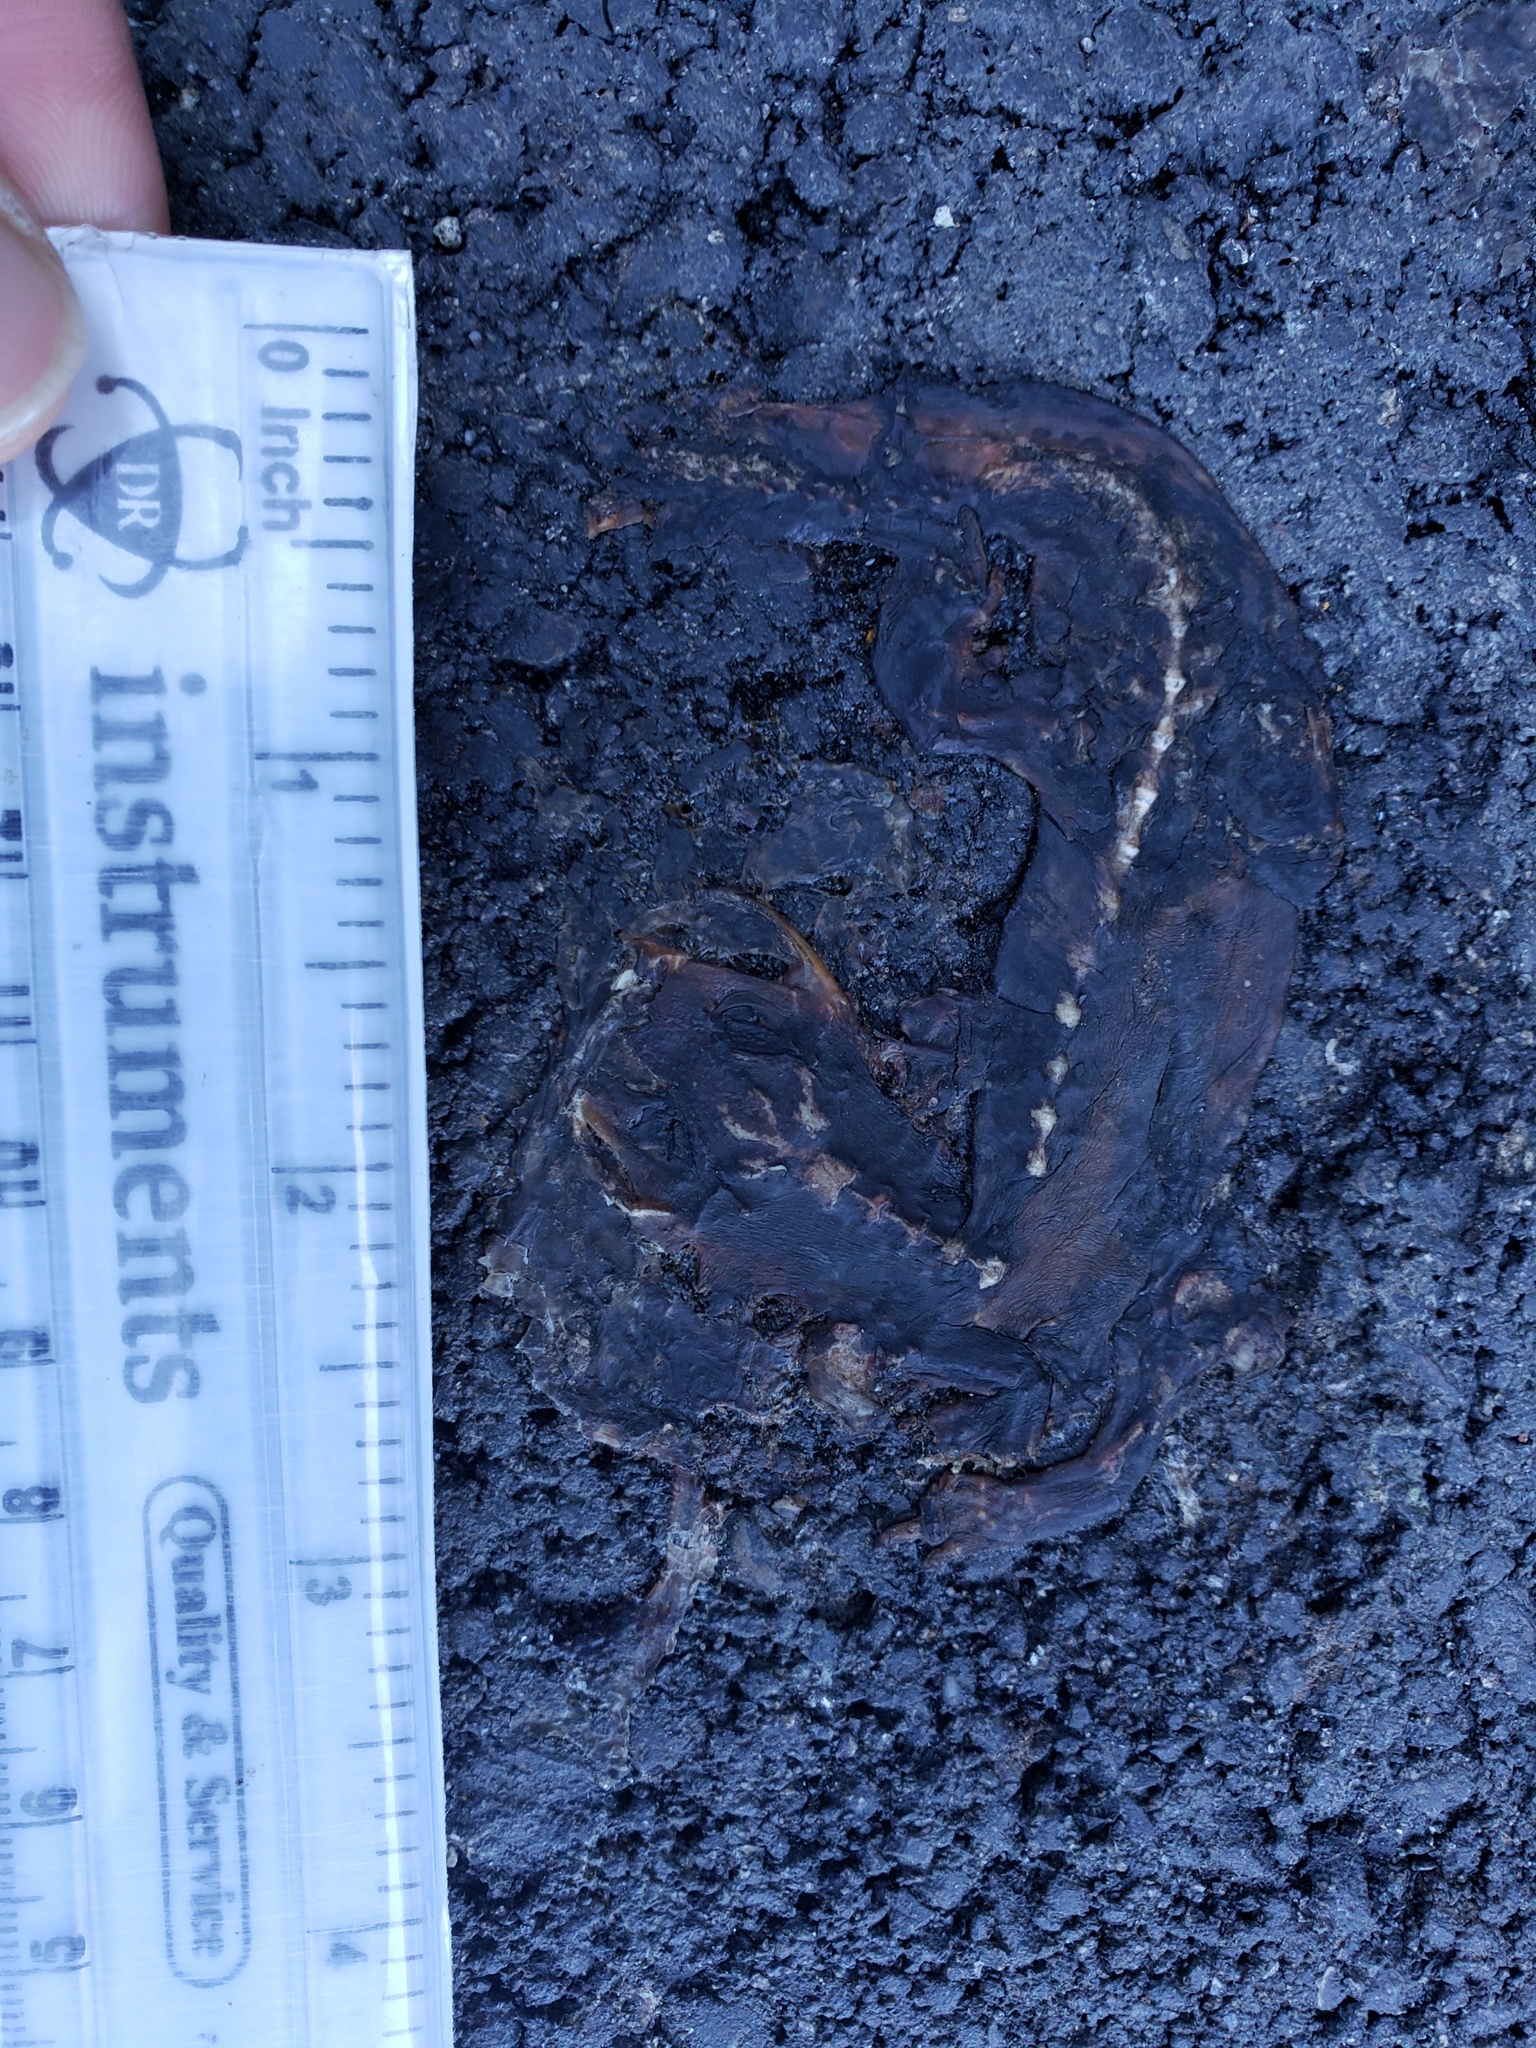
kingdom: Animalia
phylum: Chordata
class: Amphibia
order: Caudata
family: Salamandridae
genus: Taricha
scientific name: Taricha
